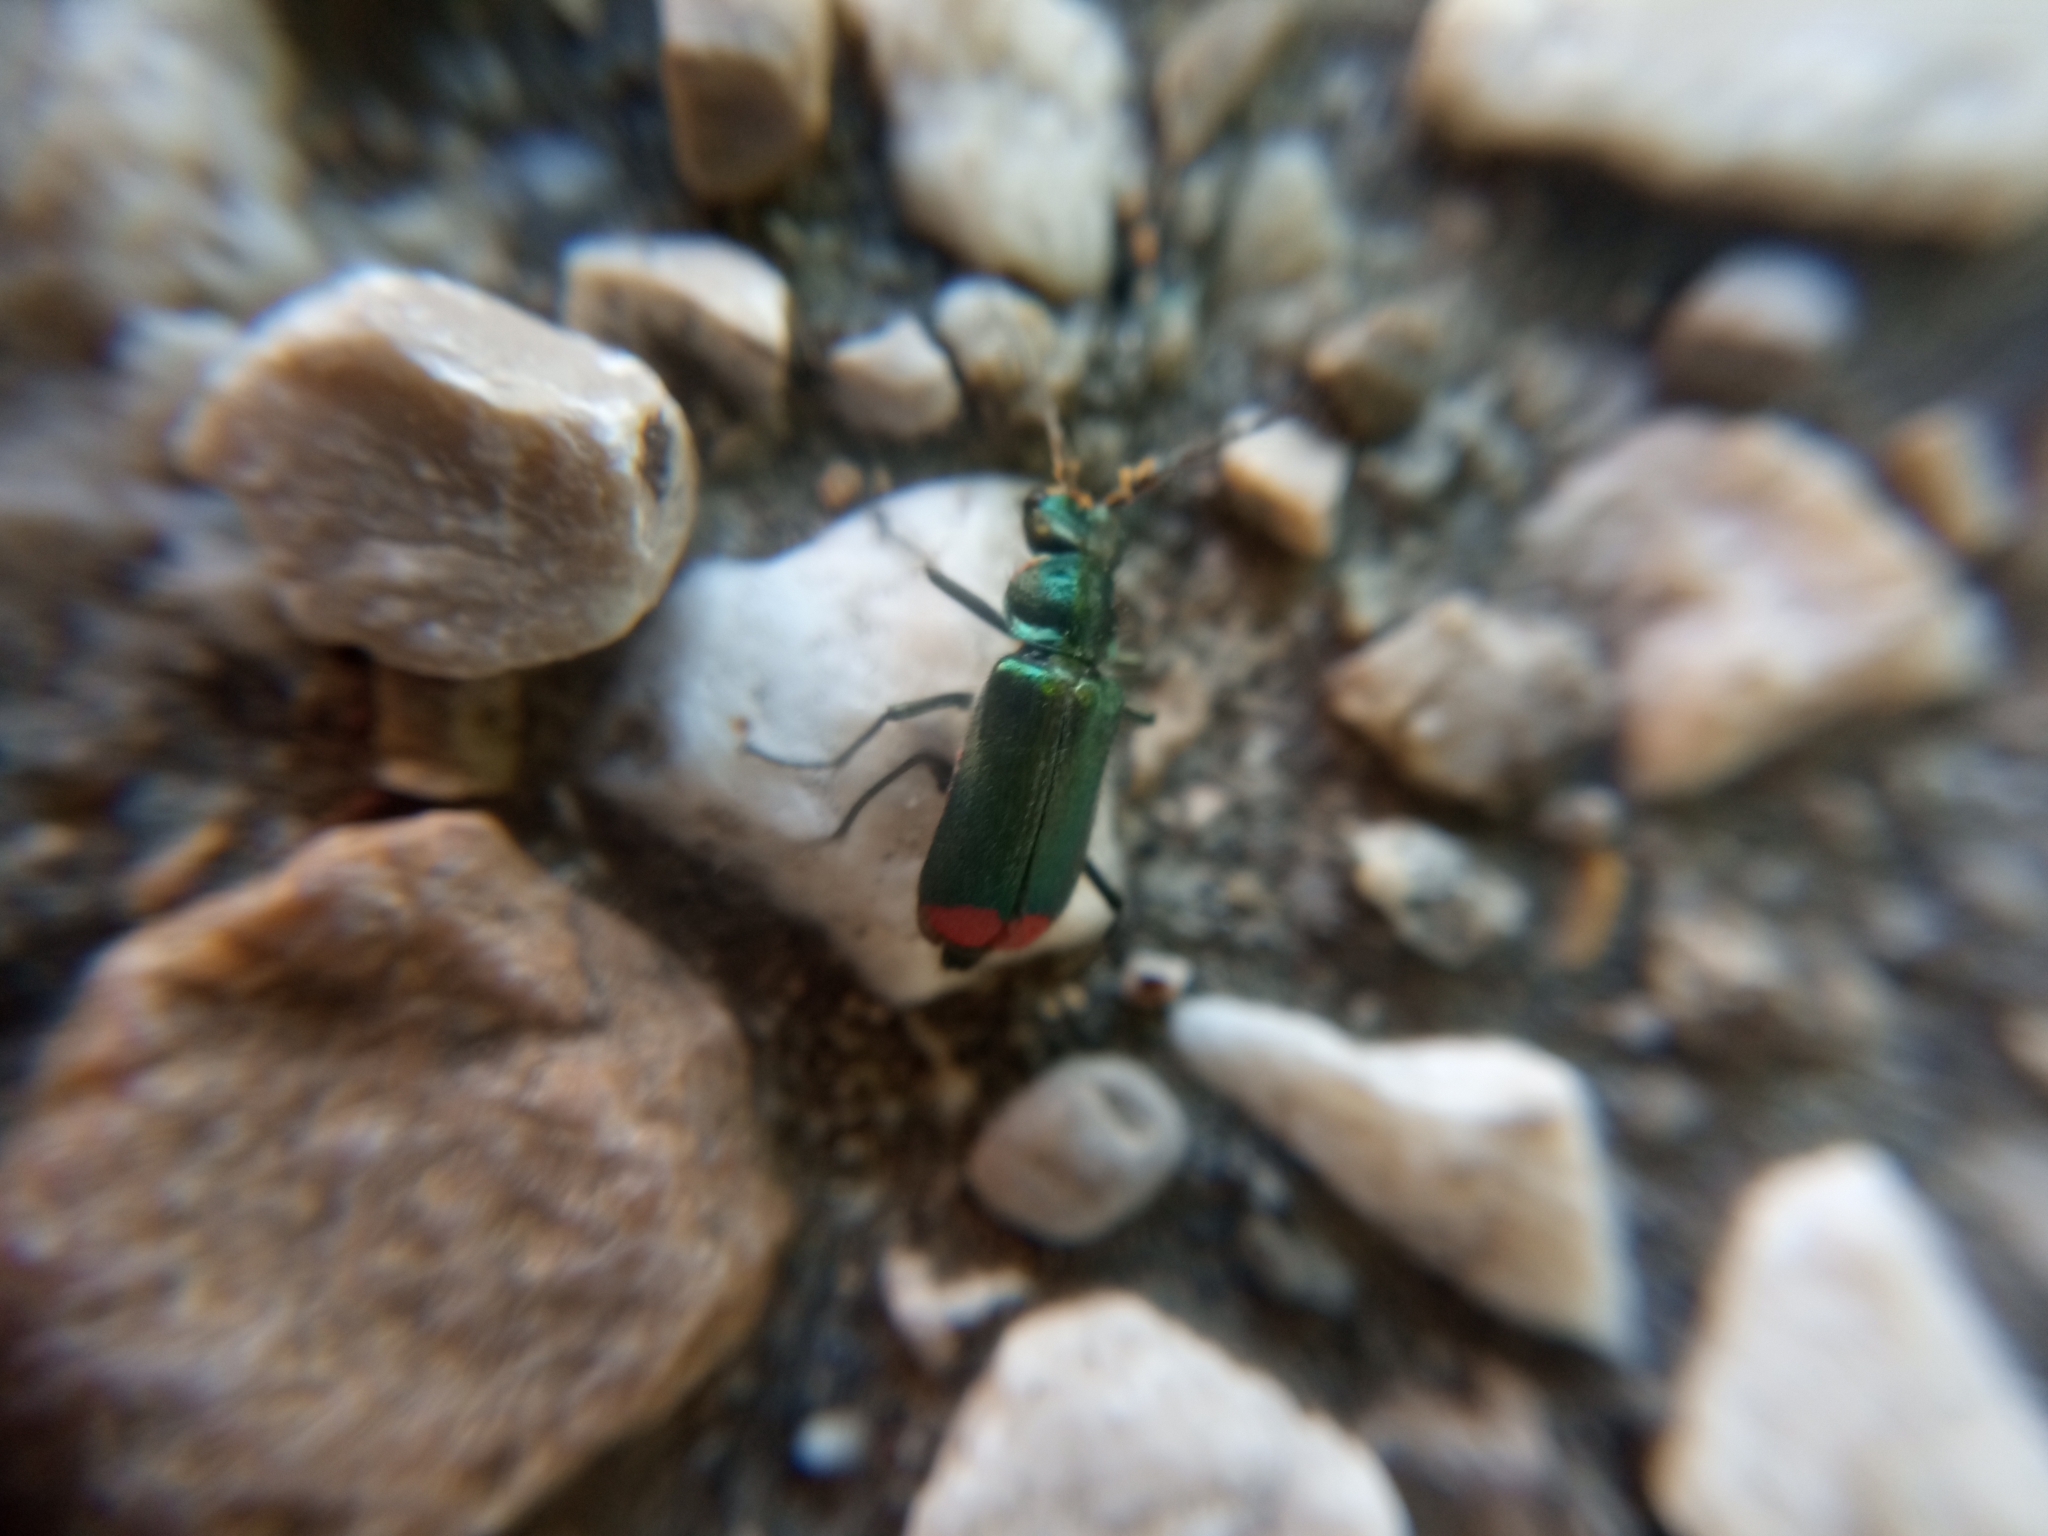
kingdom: Animalia
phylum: Arthropoda
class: Insecta
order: Coleoptera
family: Melyridae
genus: Malachius
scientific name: Malachius bipustulatus
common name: Malachite beetle
